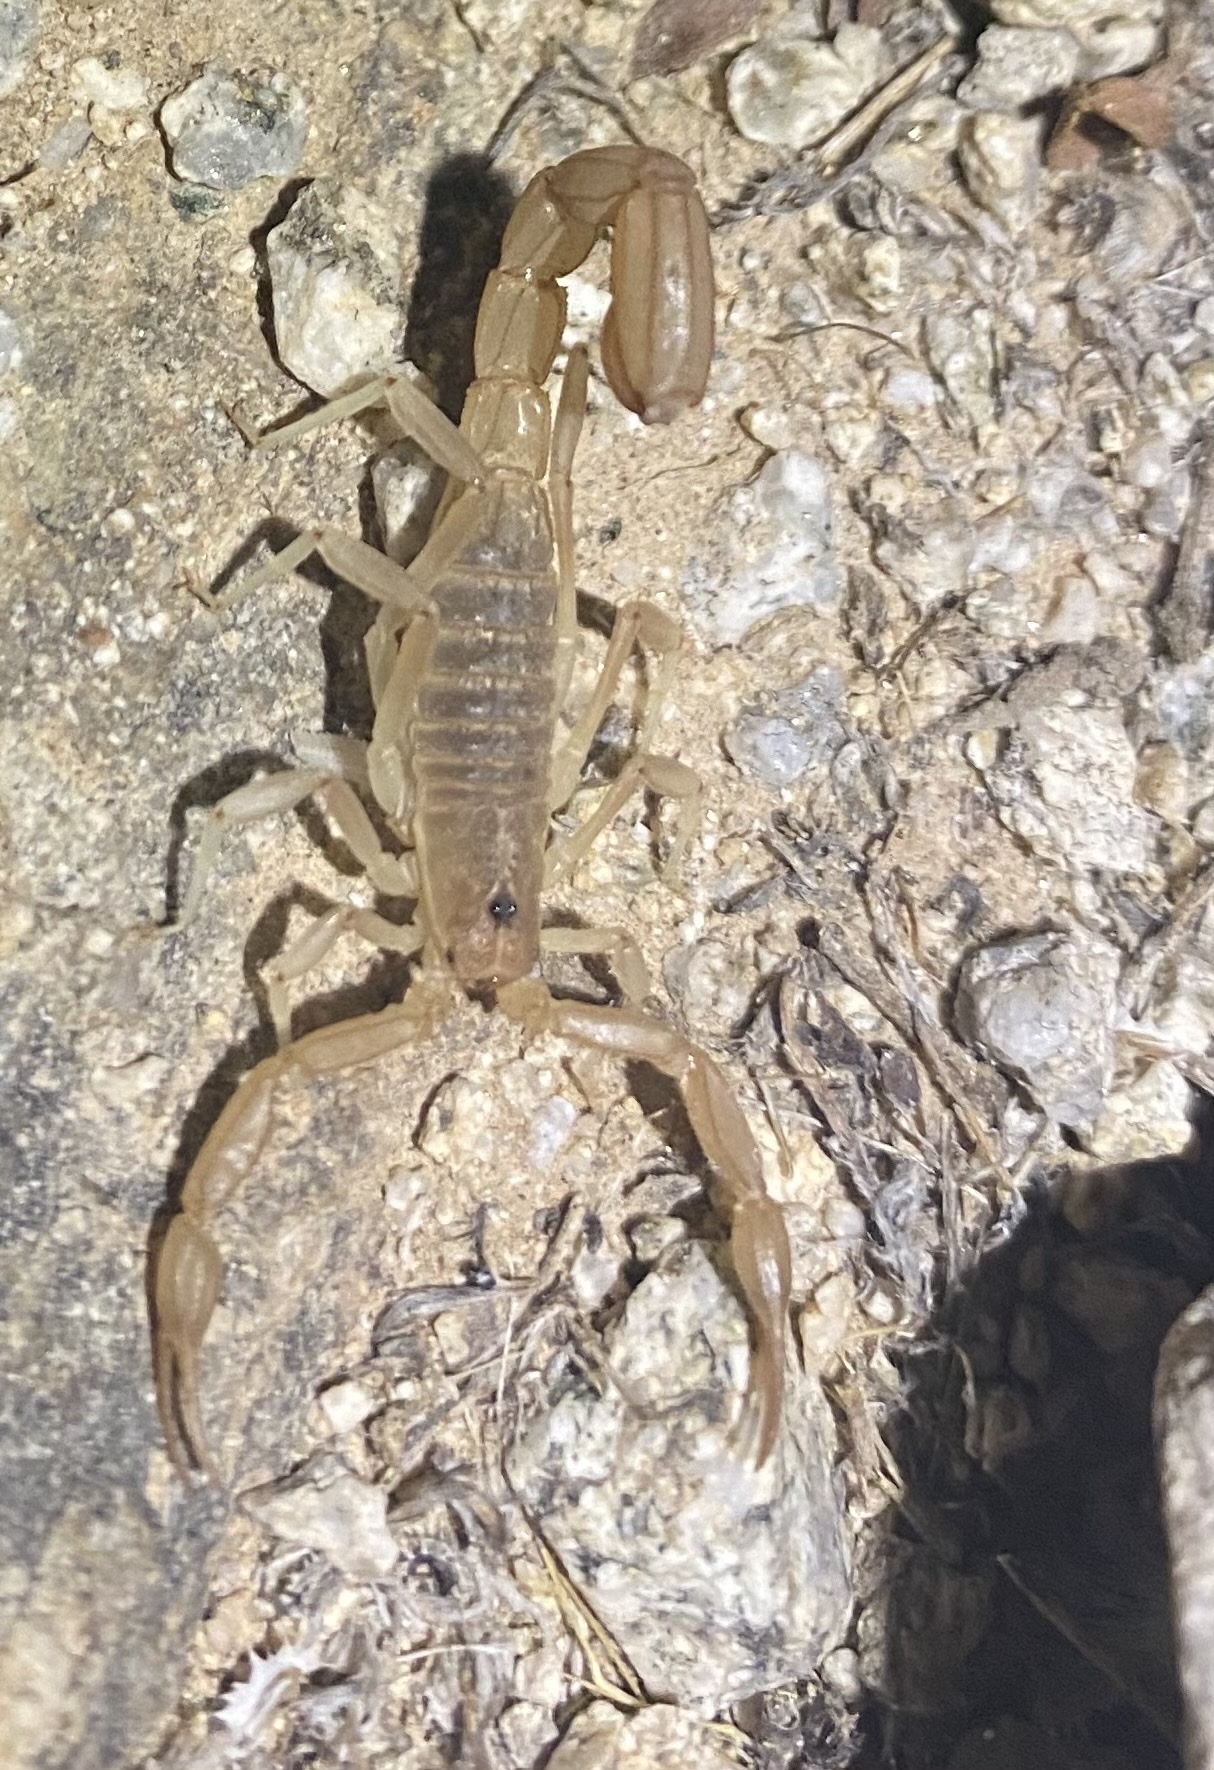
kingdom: Animalia
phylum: Arthropoda
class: Arachnida
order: Scorpiones
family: Vaejovidae
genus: Paravaejovis
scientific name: Paravaejovis confusus
